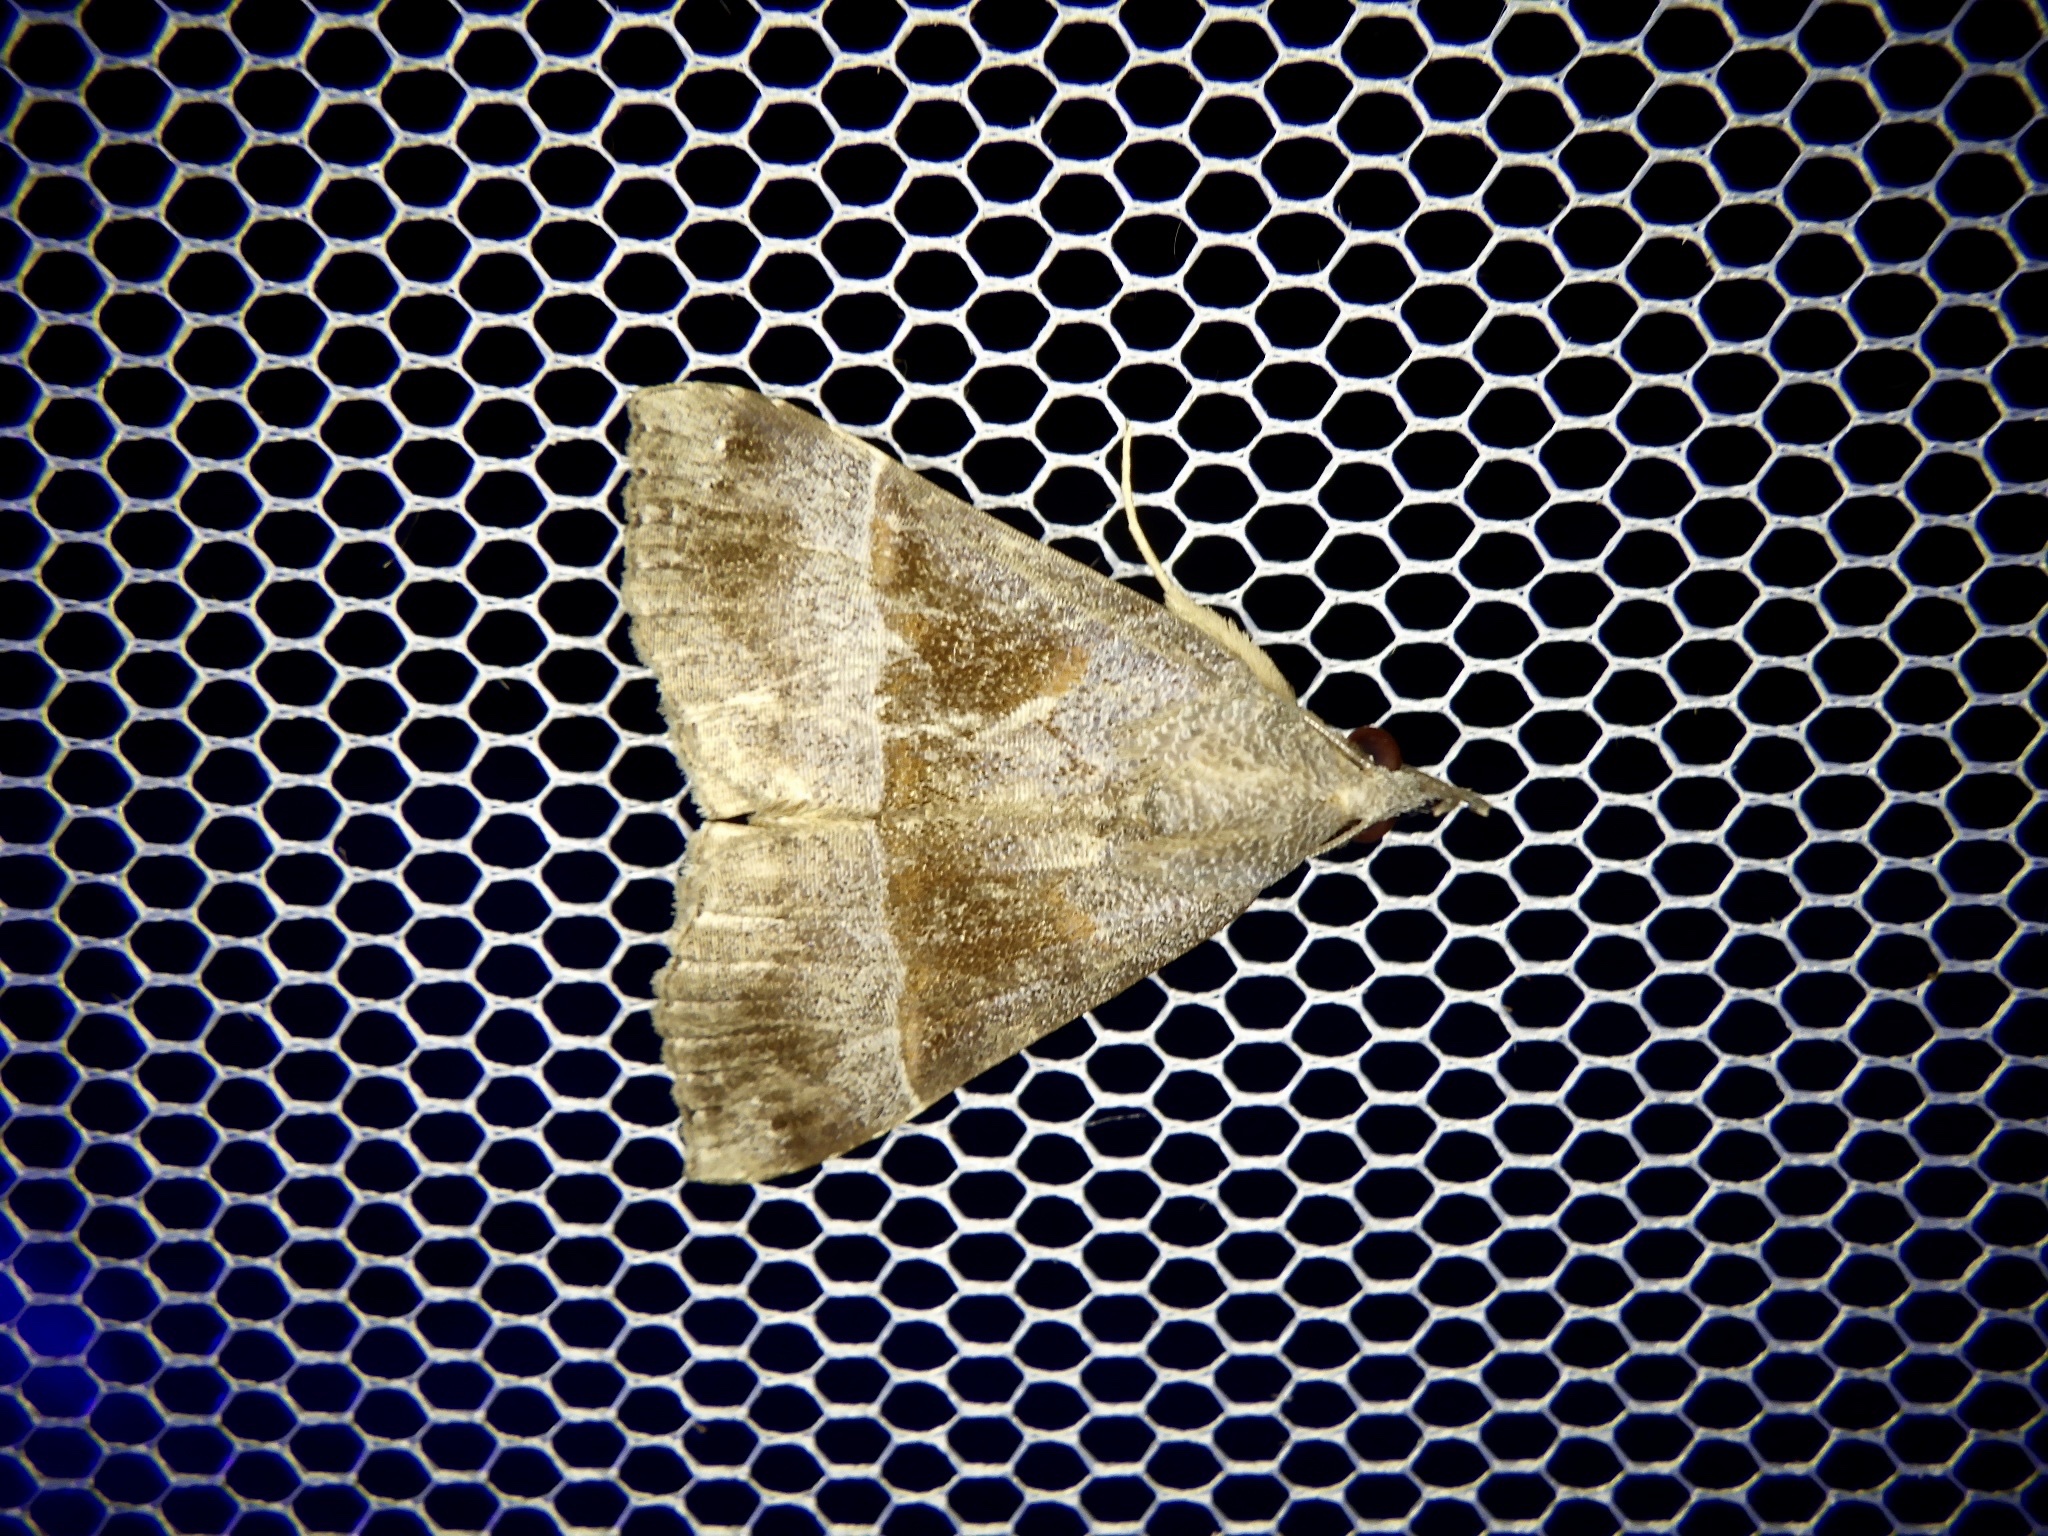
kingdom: Animalia
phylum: Arthropoda
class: Insecta
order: Lepidoptera
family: Erebidae
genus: Hypena
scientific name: Hypena amica
